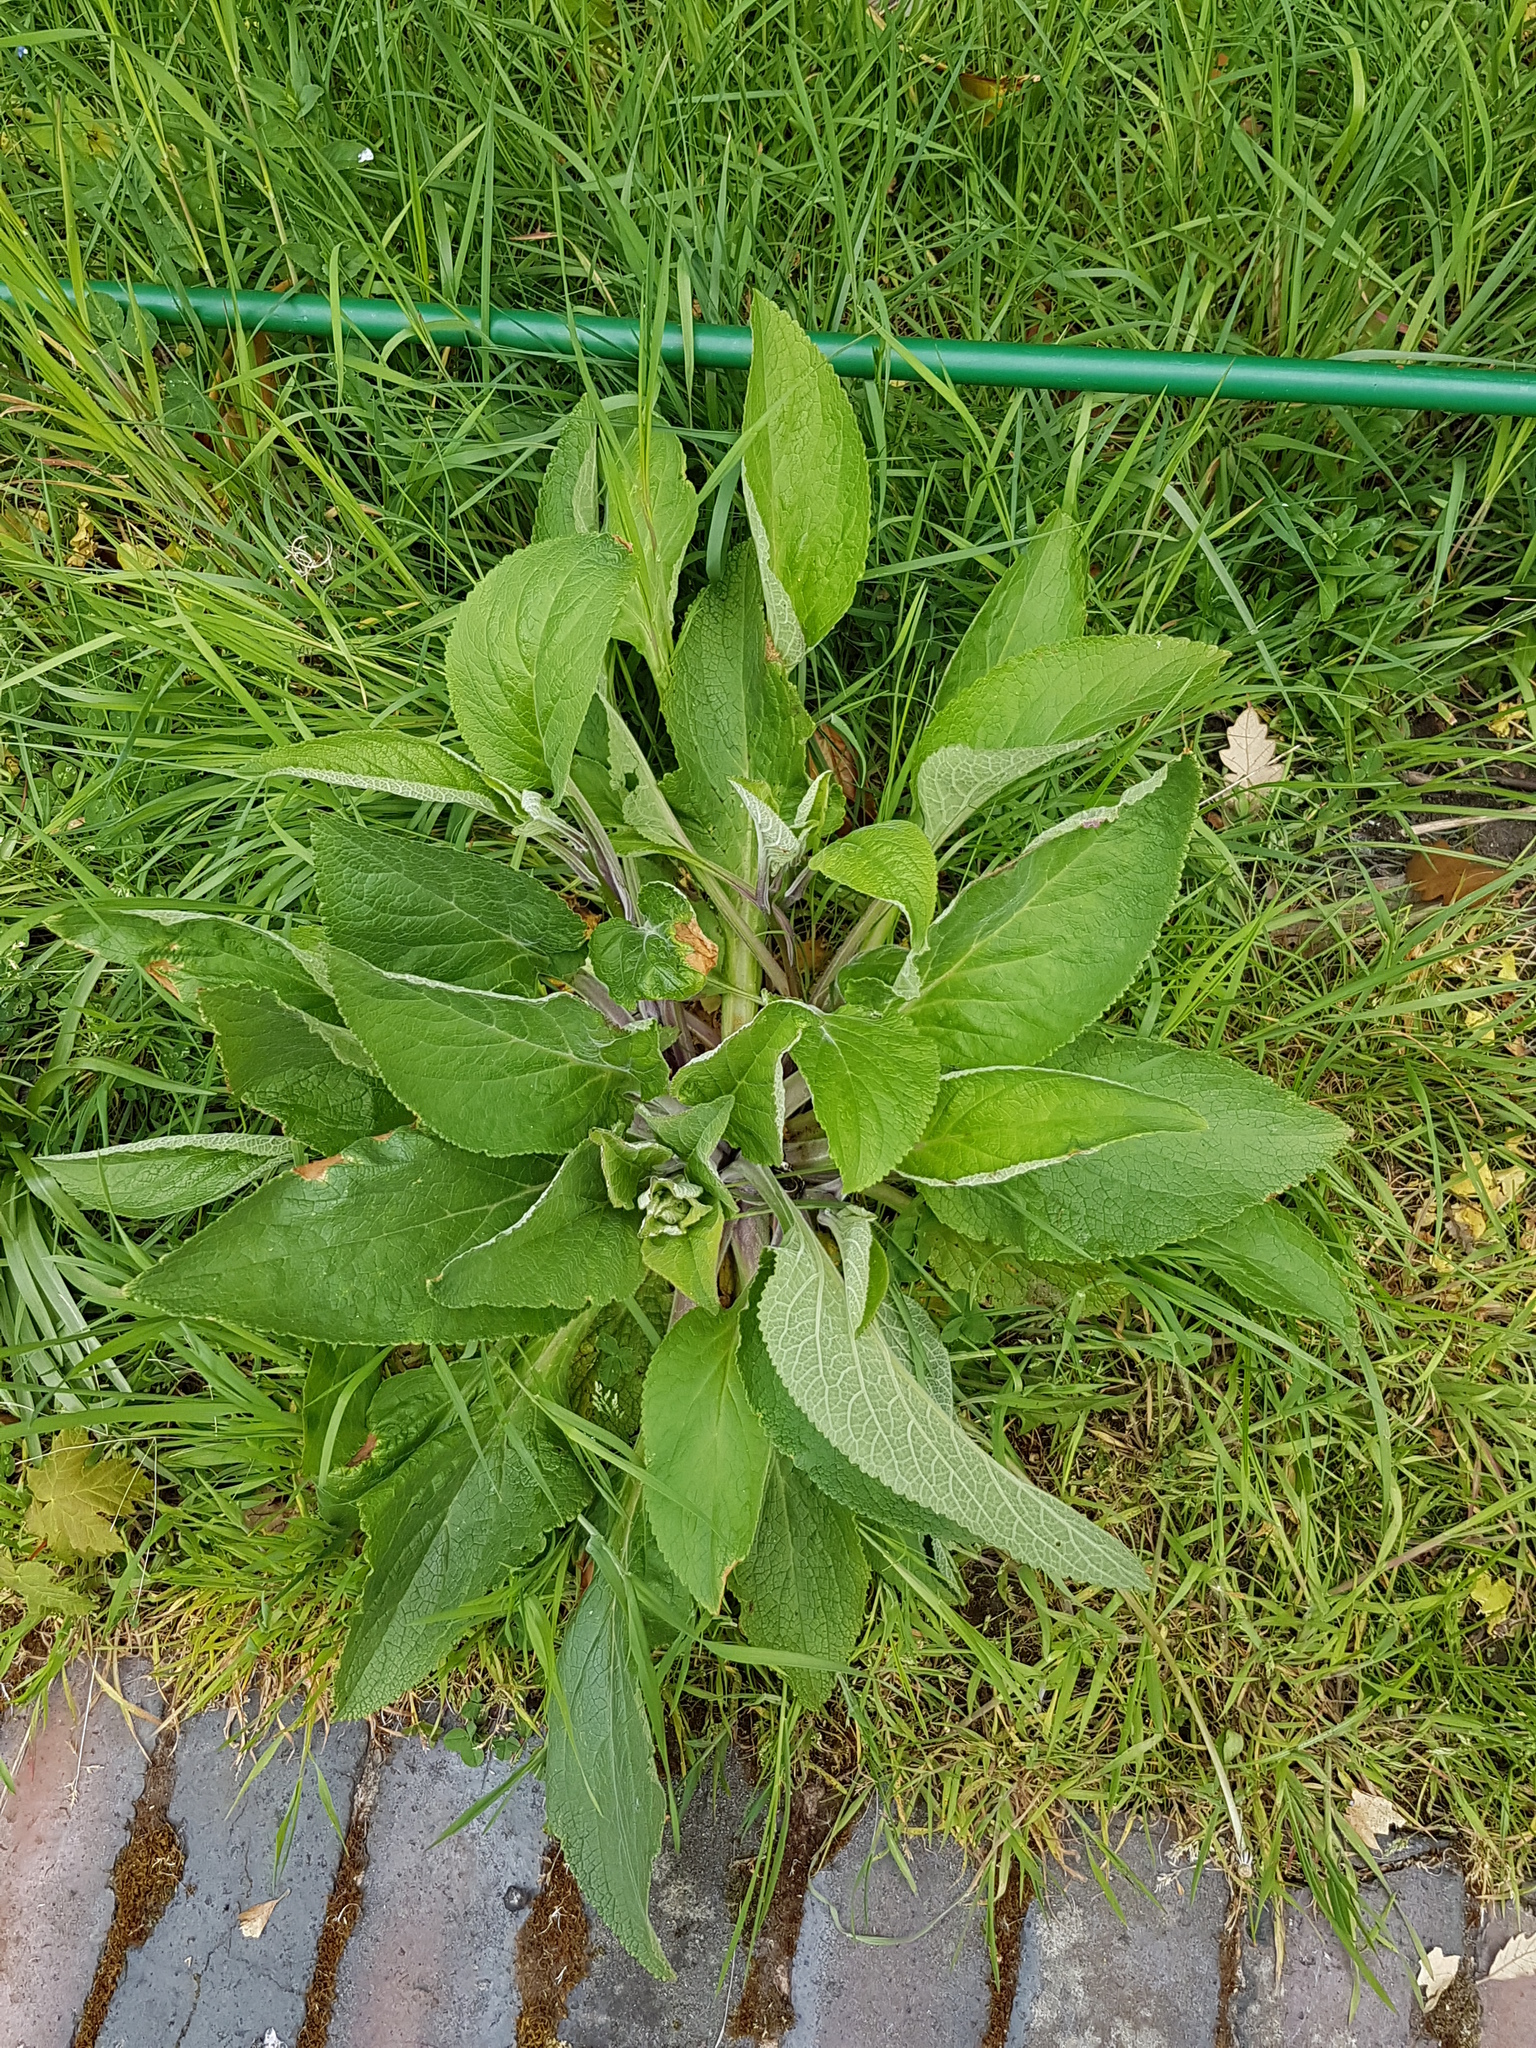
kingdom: Plantae
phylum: Tracheophyta
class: Magnoliopsida
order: Lamiales
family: Plantaginaceae
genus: Digitalis
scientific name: Digitalis purpurea
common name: Foxglove
